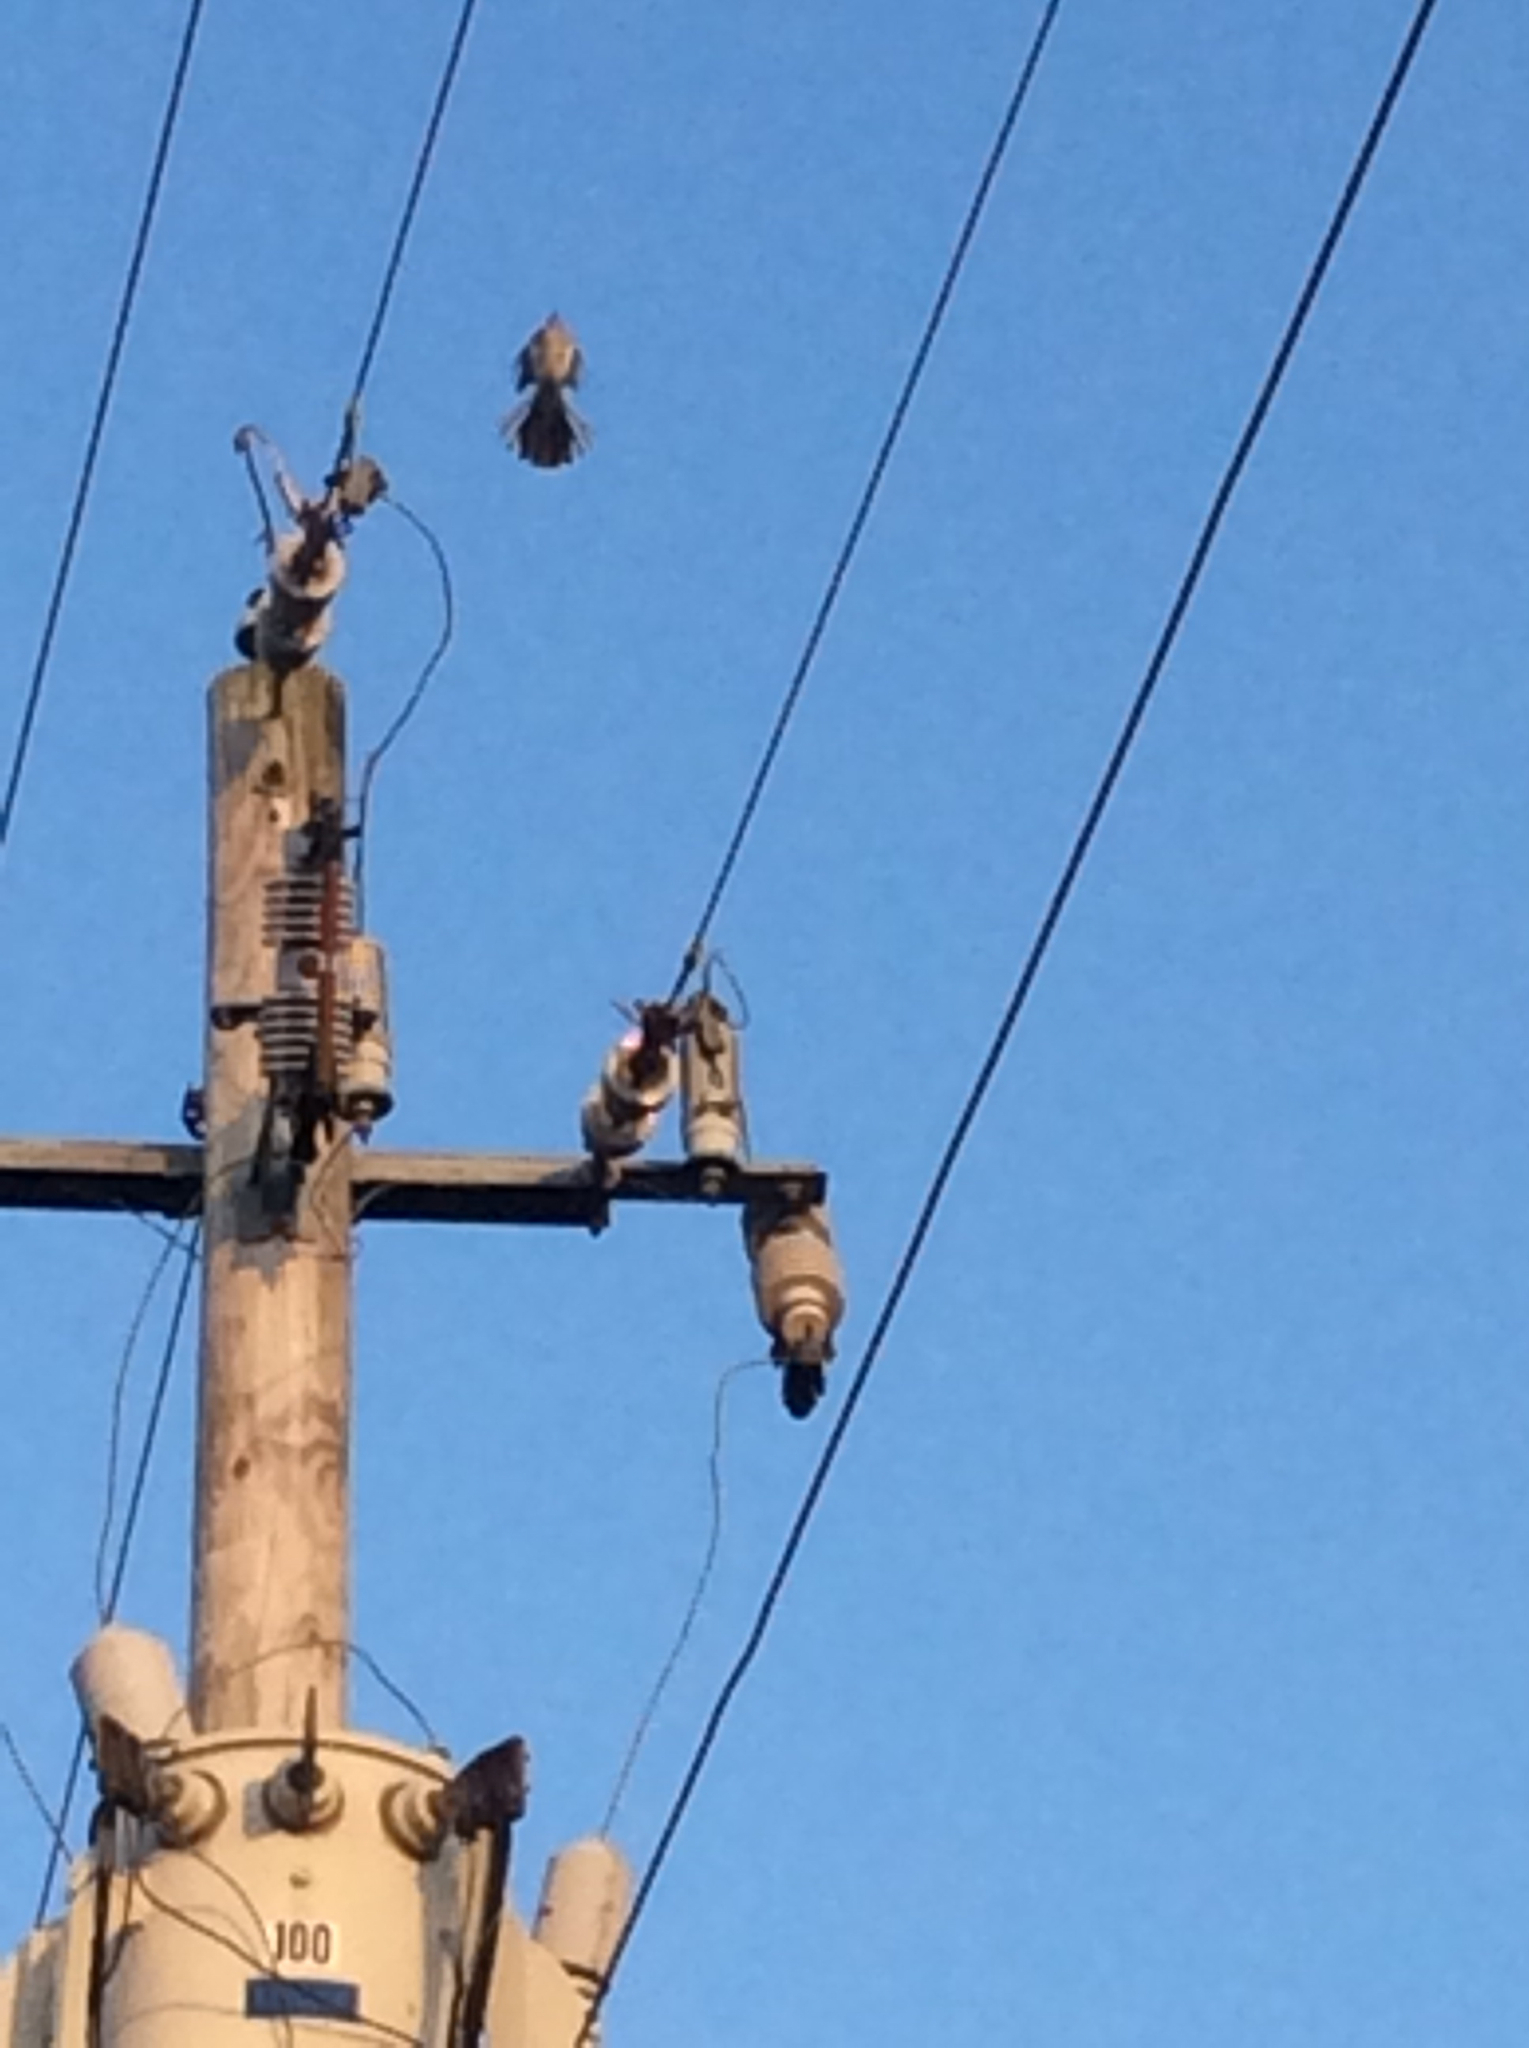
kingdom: Animalia
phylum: Chordata
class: Aves
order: Passeriformes
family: Mimidae
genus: Mimus
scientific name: Mimus polyglottos
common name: Northern mockingbird
